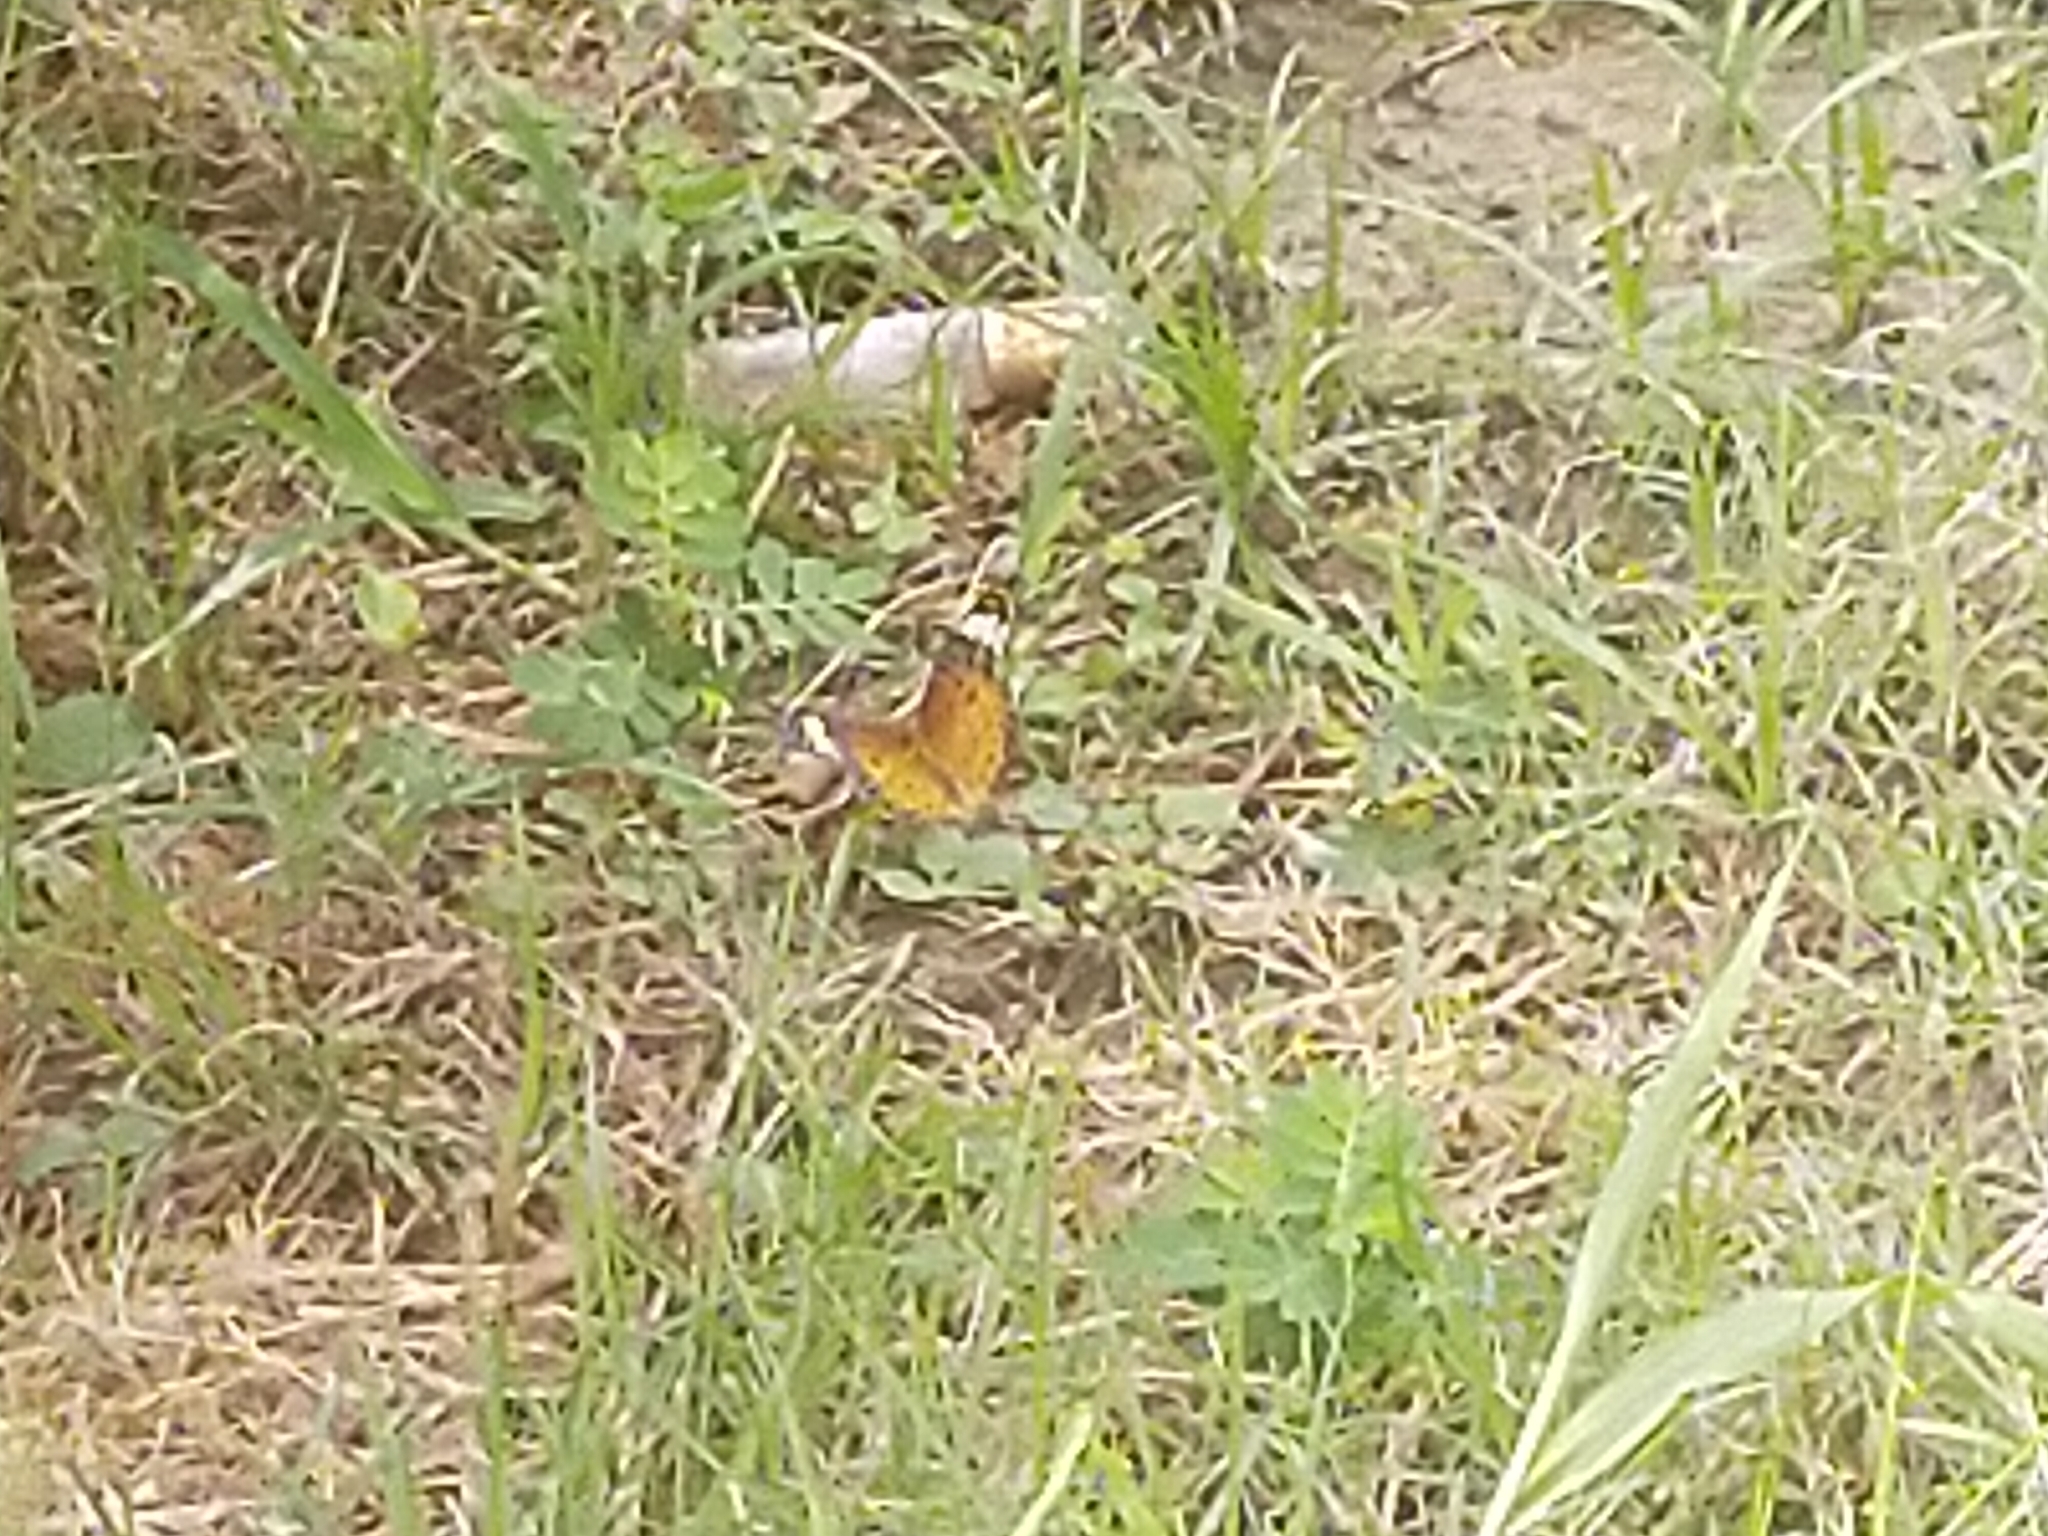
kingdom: Animalia
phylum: Arthropoda
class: Insecta
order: Lepidoptera
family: Nymphalidae
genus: Argynnis
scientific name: Argynnis hyperbius
